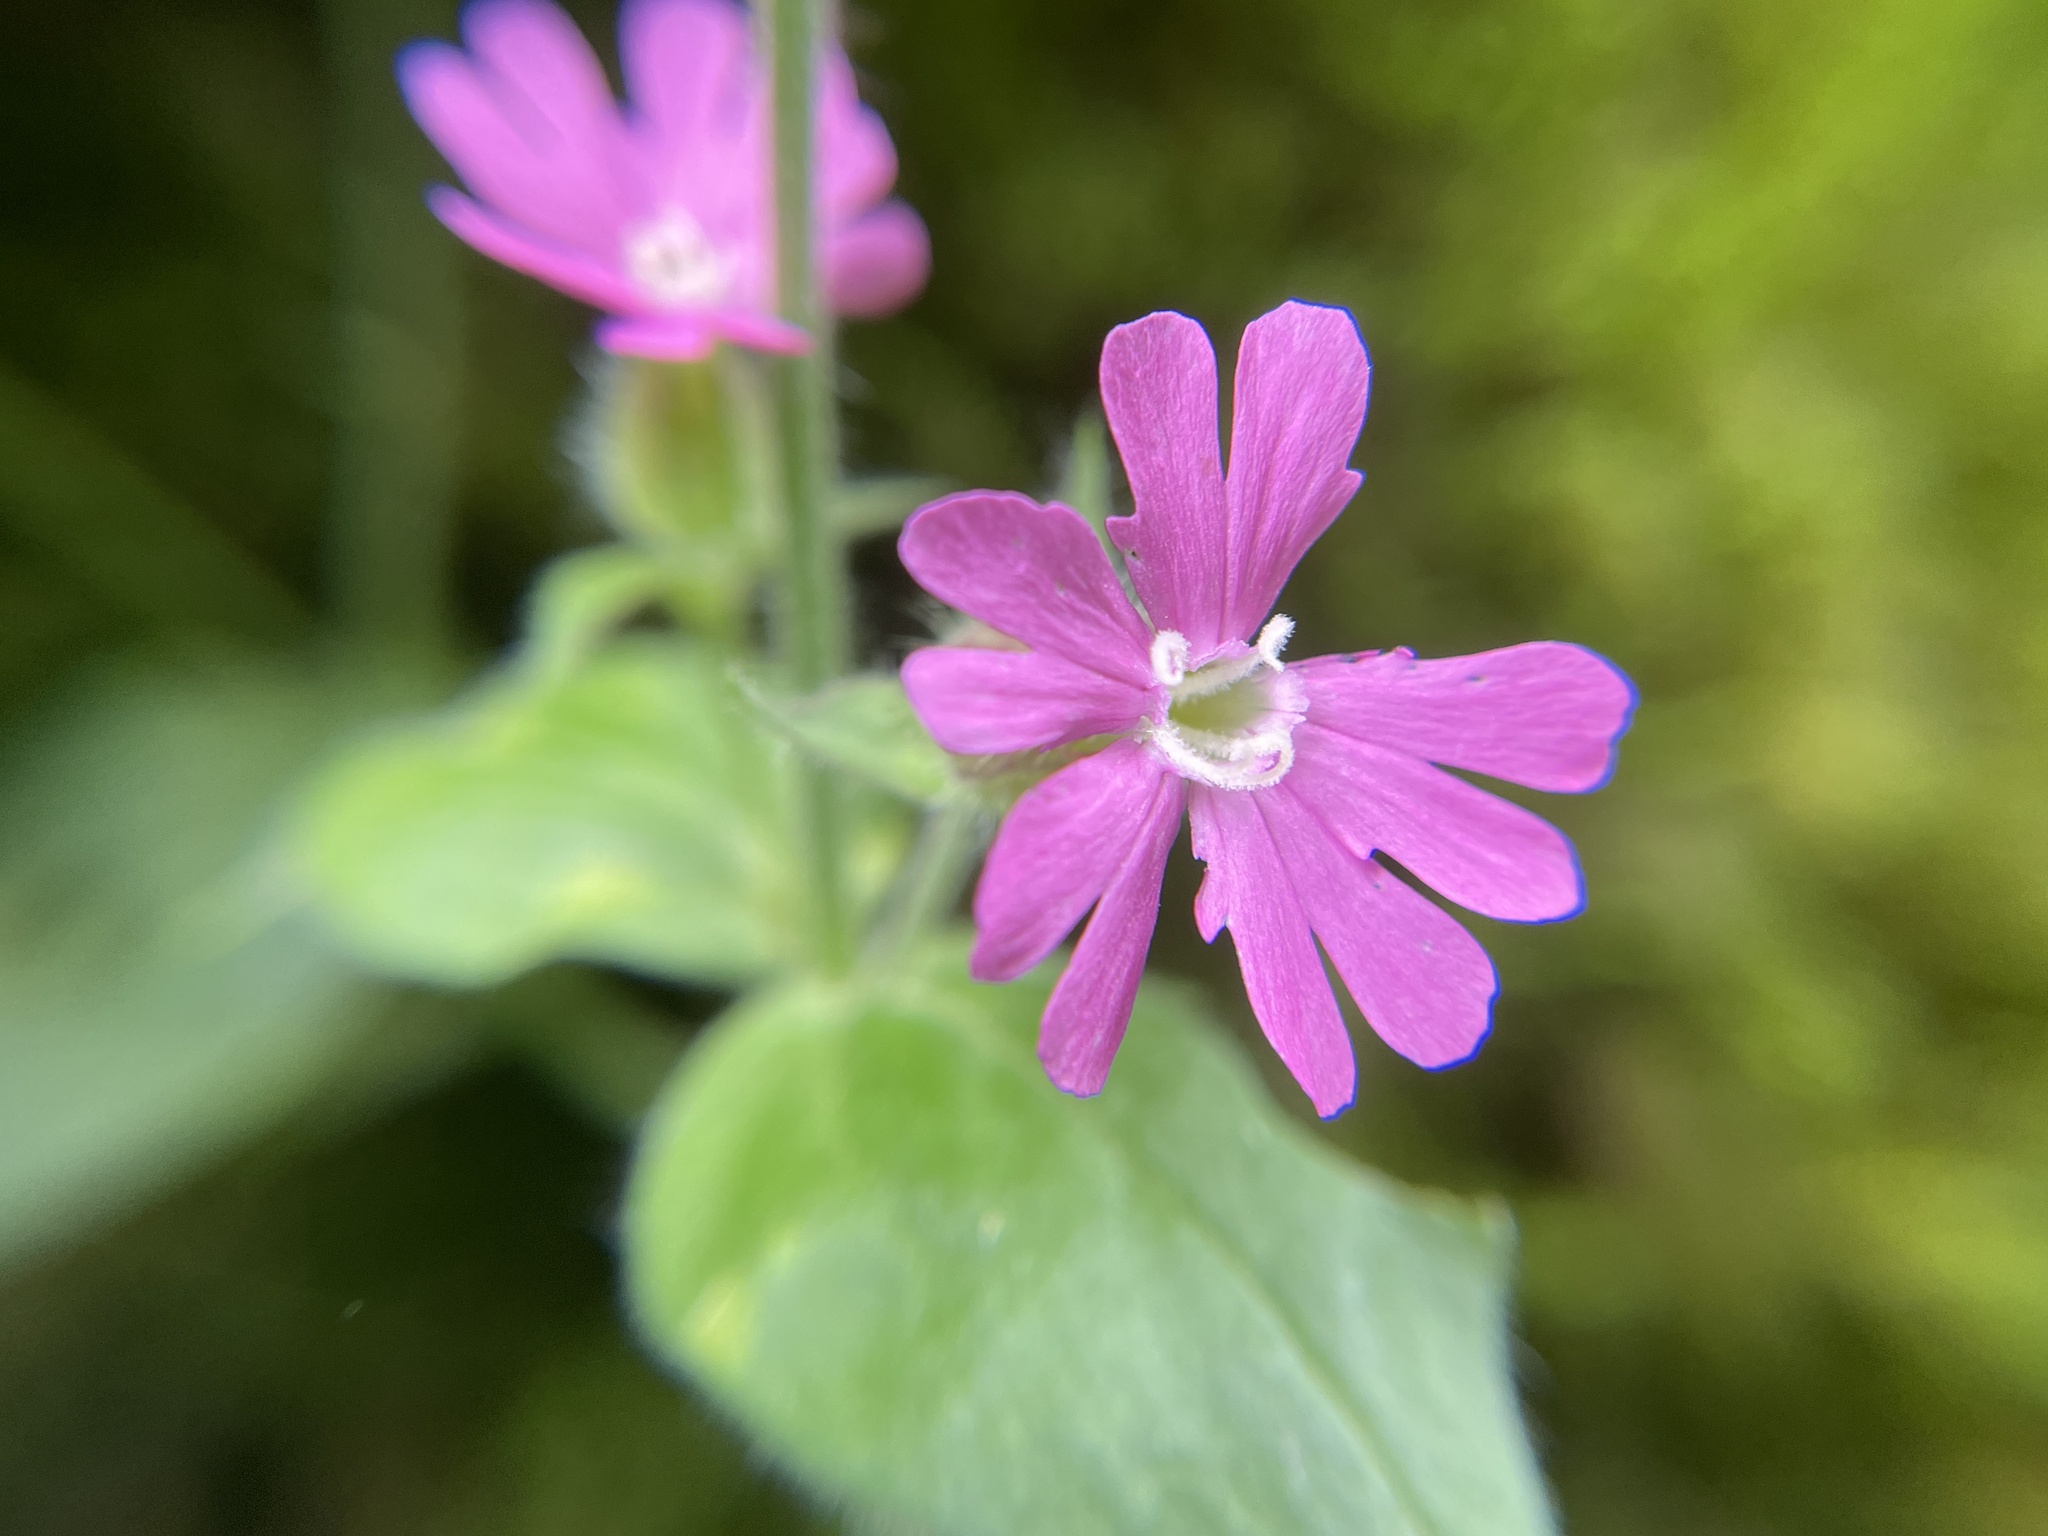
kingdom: Plantae
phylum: Tracheophyta
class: Magnoliopsida
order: Caryophyllales
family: Caryophyllaceae
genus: Silene
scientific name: Silene dioica
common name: Red campion
